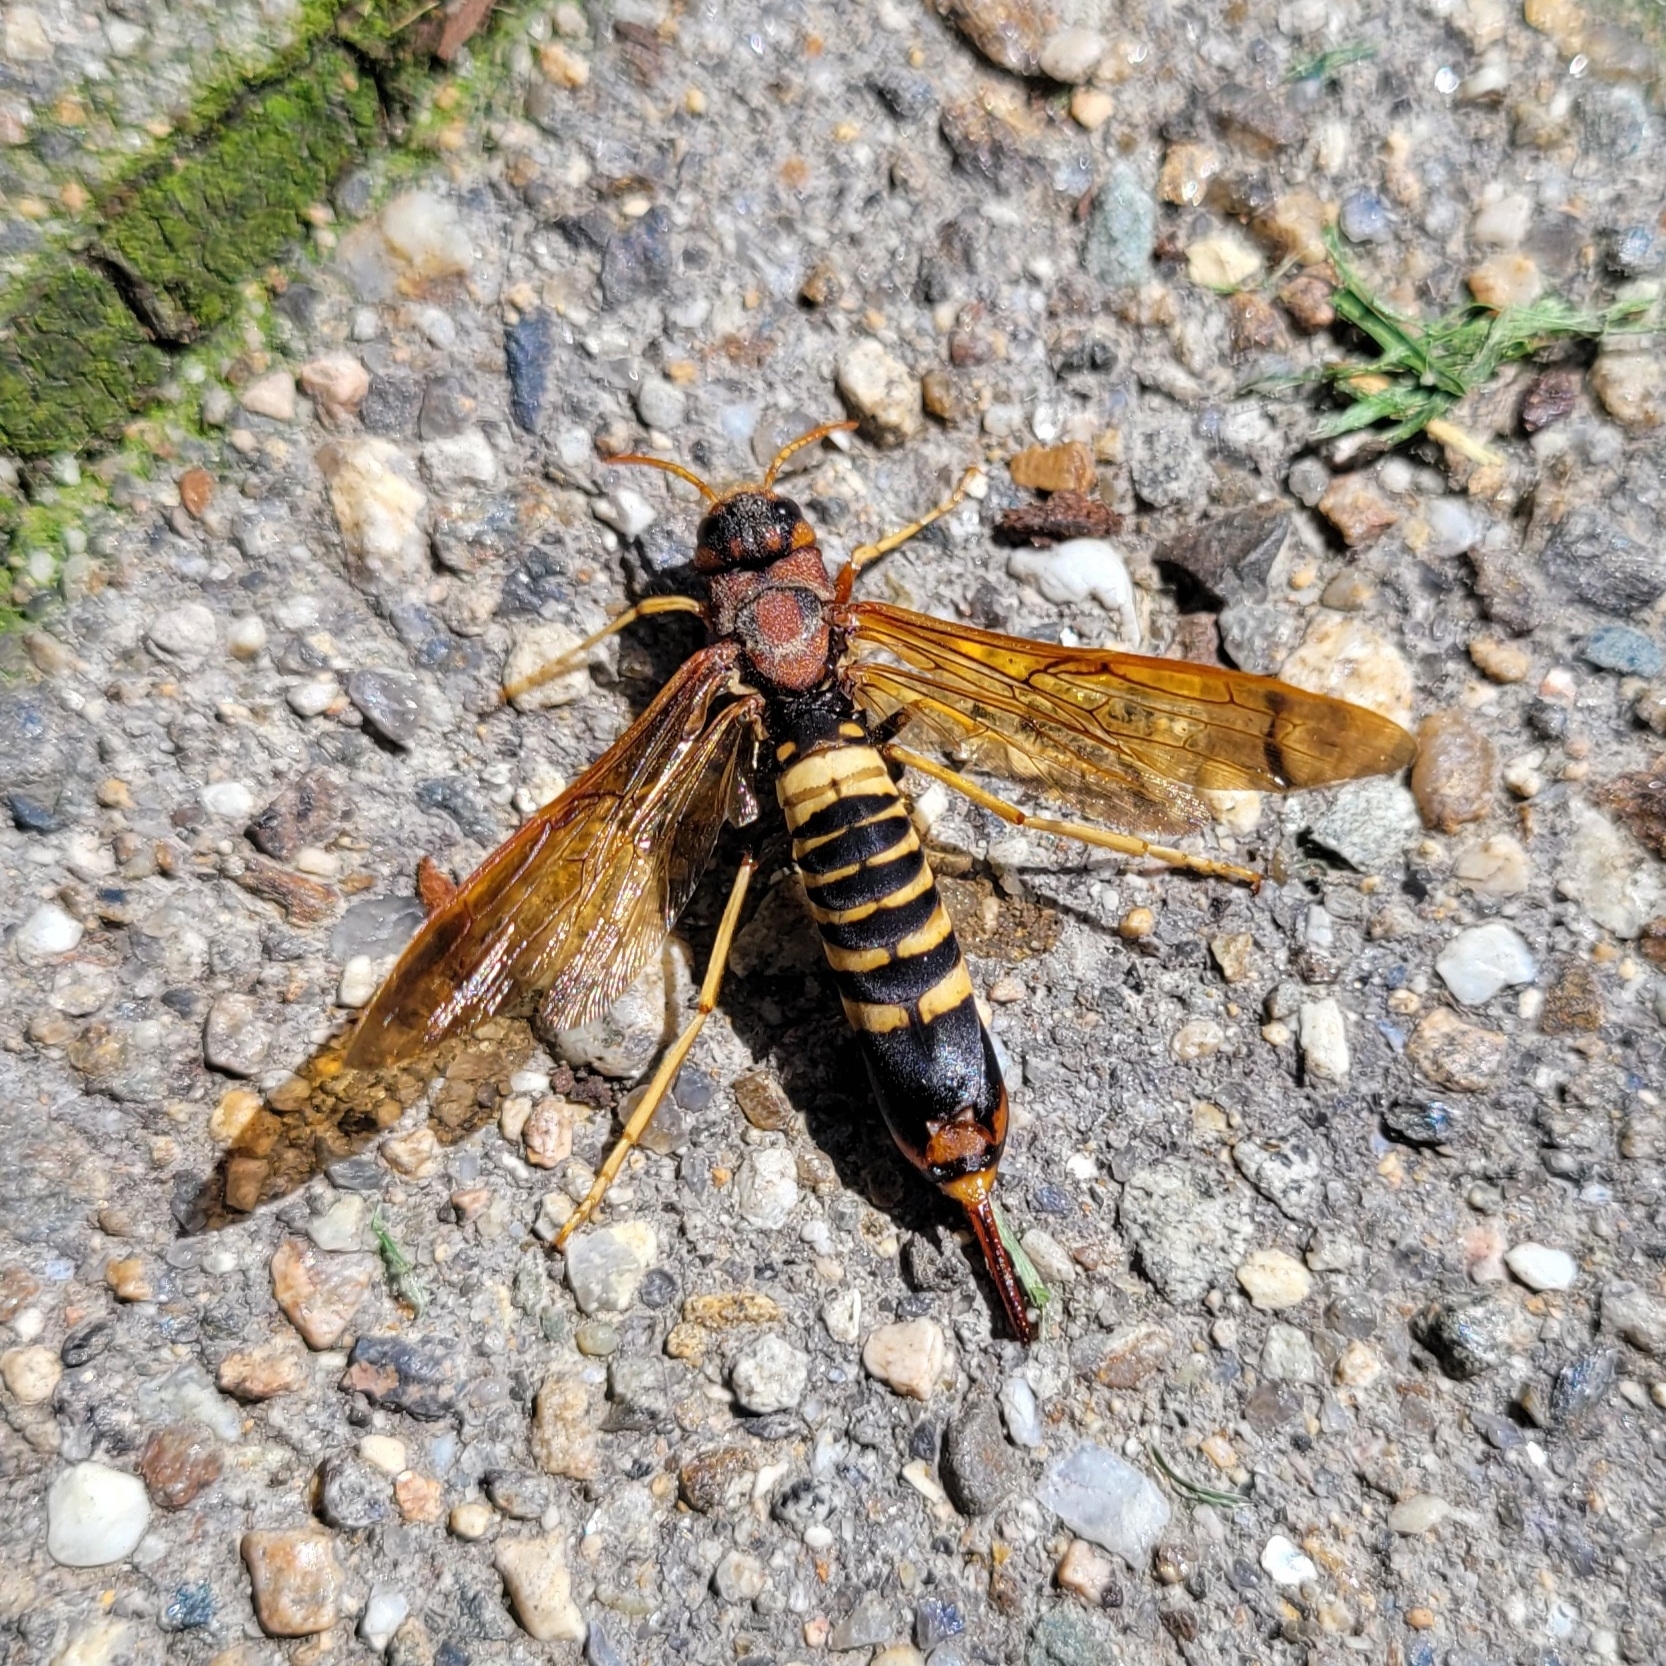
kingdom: Animalia
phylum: Arthropoda
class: Insecta
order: Hymenoptera
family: Siricidae
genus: Tremex
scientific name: Tremex columba
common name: Wasp
